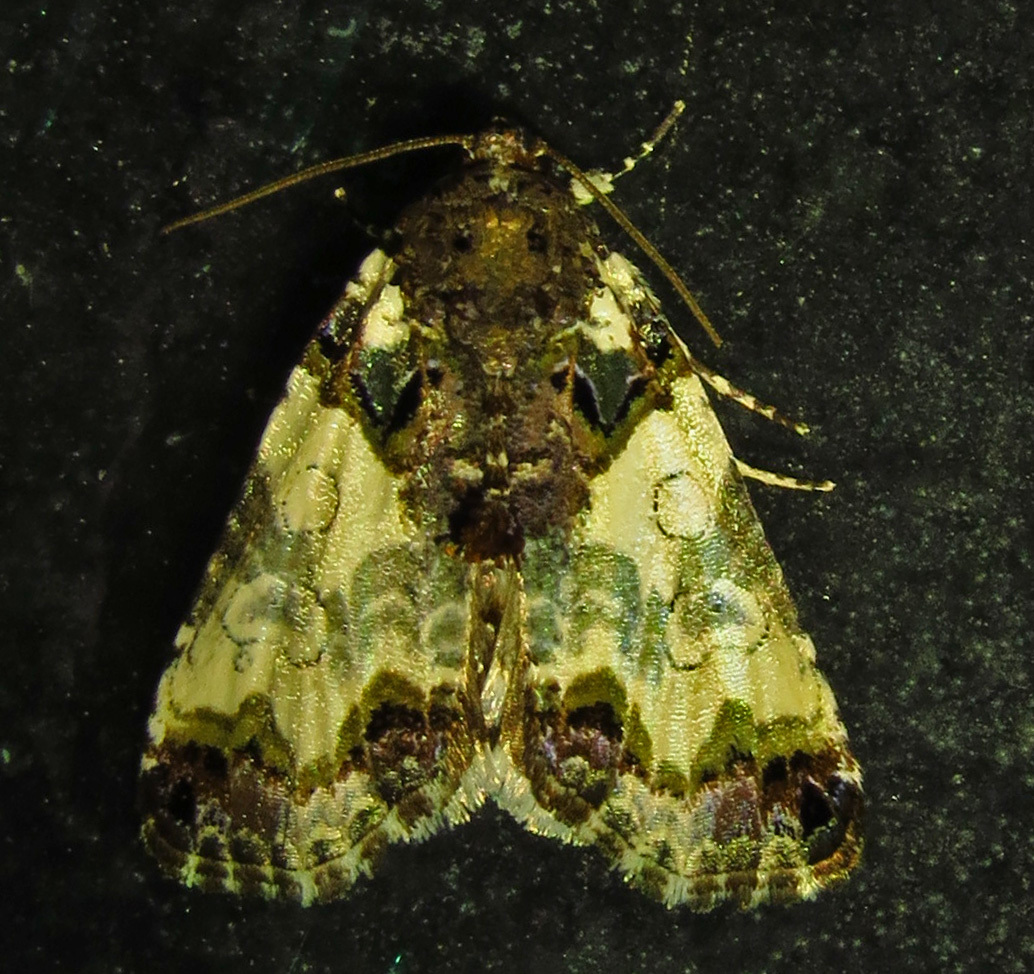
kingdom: Animalia
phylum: Arthropoda
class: Insecta
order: Lepidoptera
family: Noctuidae
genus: Cerma
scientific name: Cerma cerintha
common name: Tufted bird-dropping moth
